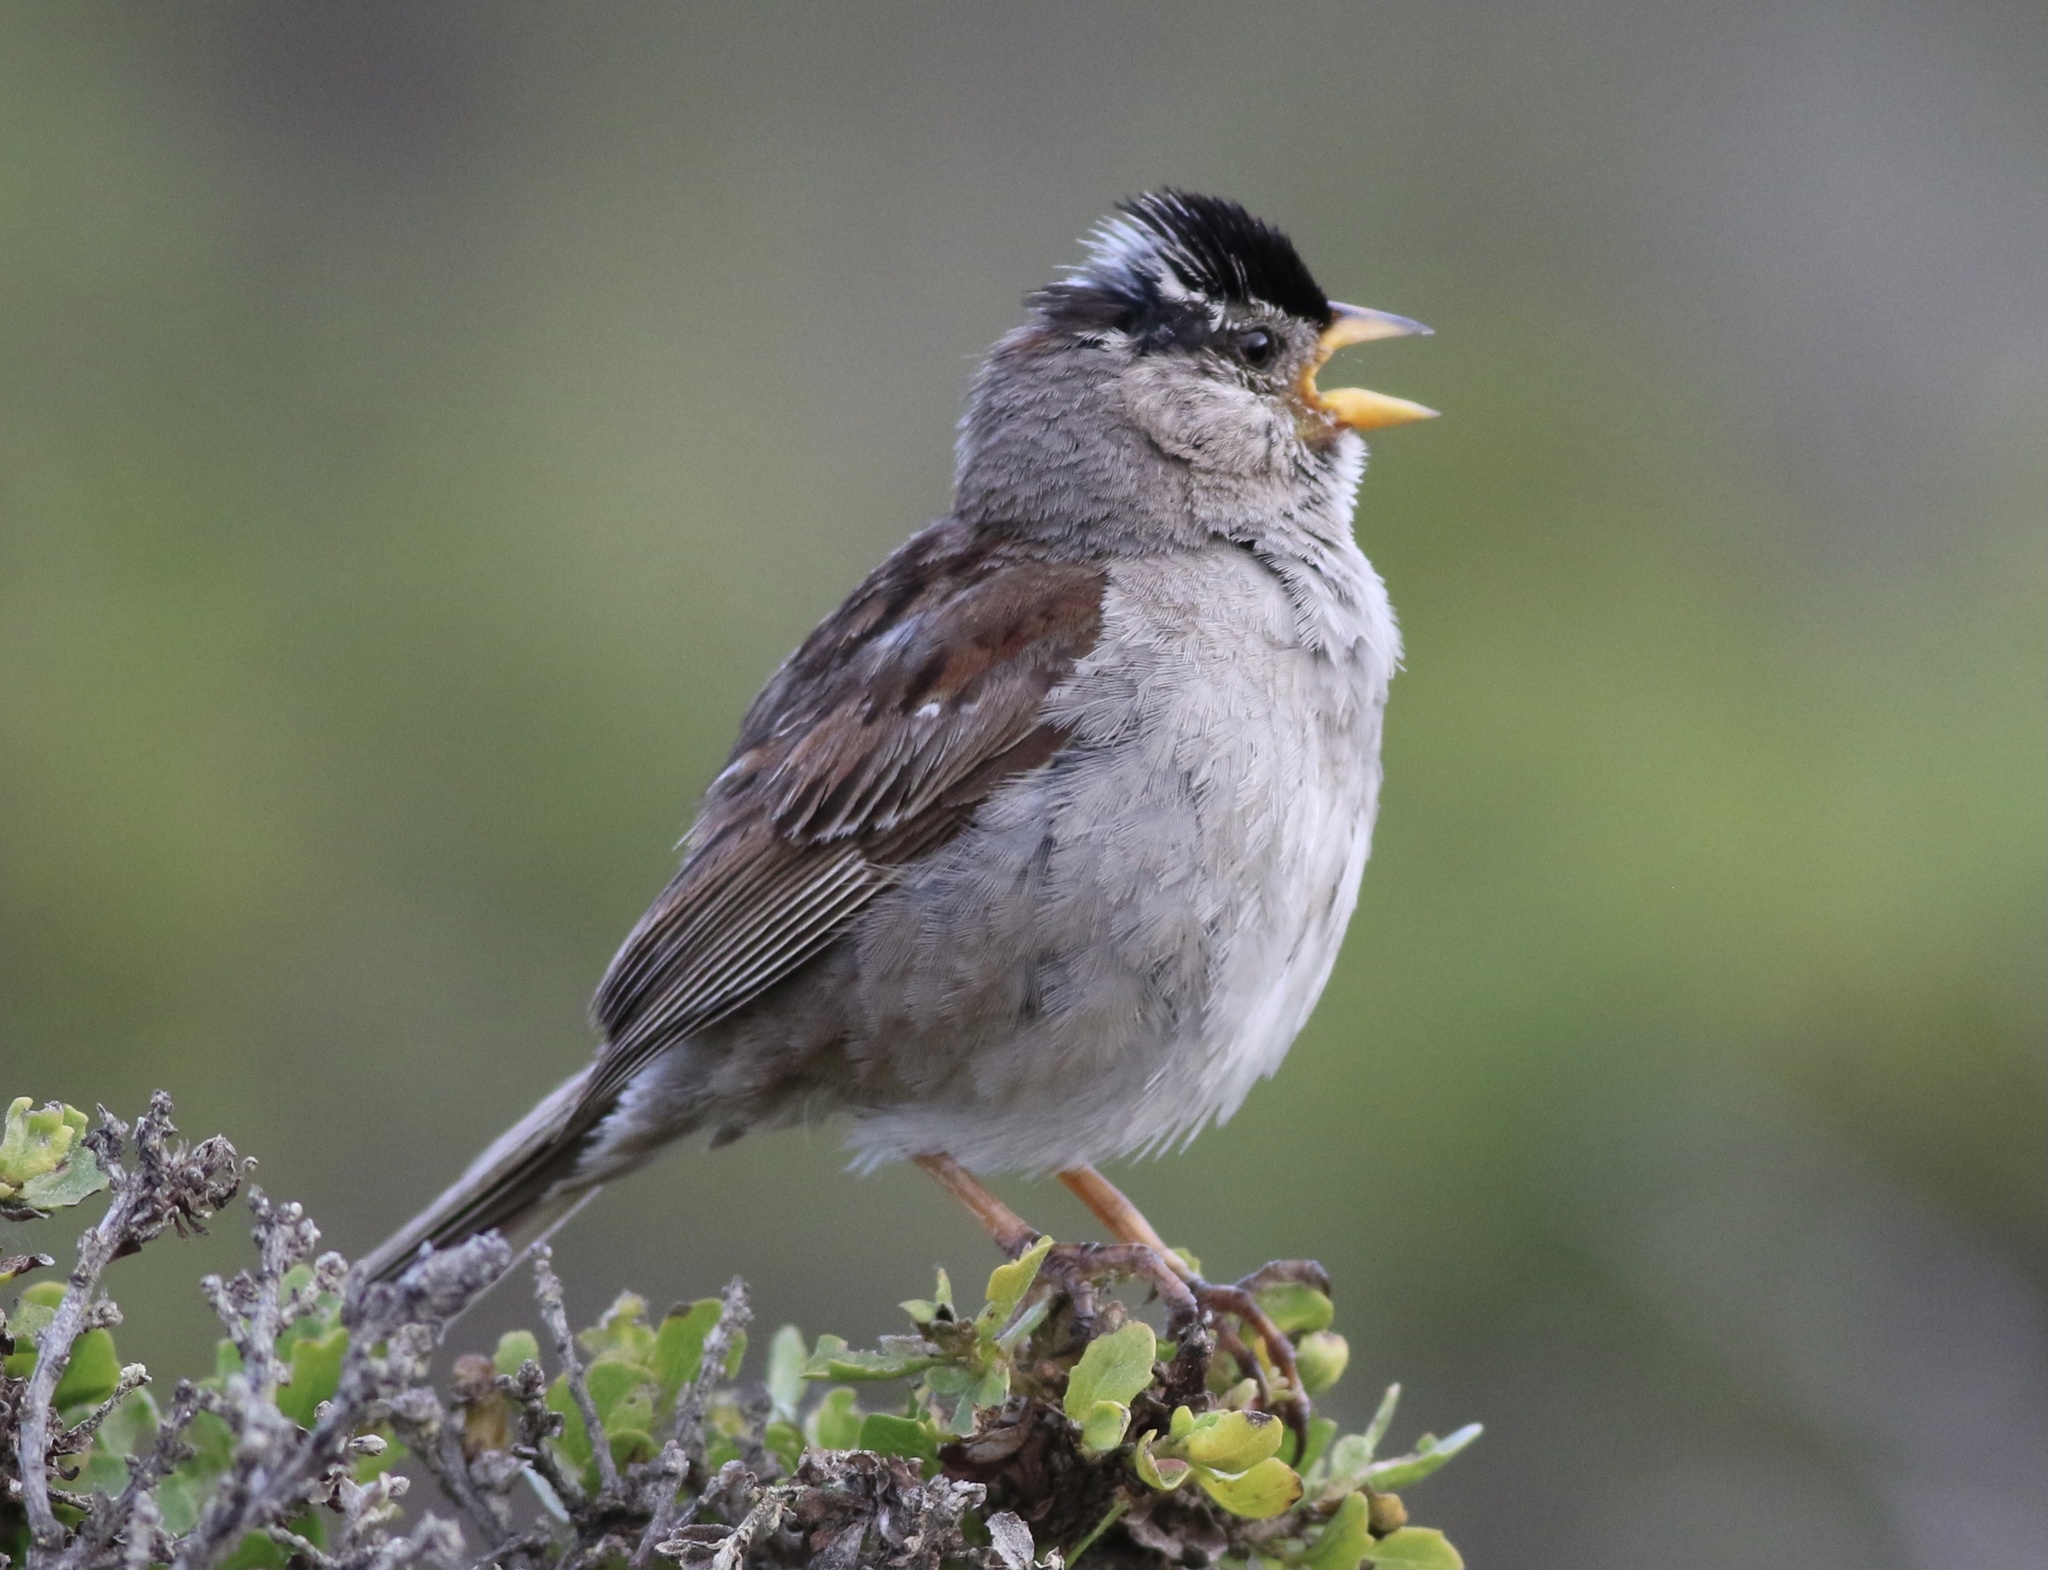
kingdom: Animalia
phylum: Chordata
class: Aves
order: Passeriformes
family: Passerellidae
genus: Zonotrichia
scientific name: Zonotrichia leucophrys
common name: White-crowned sparrow
